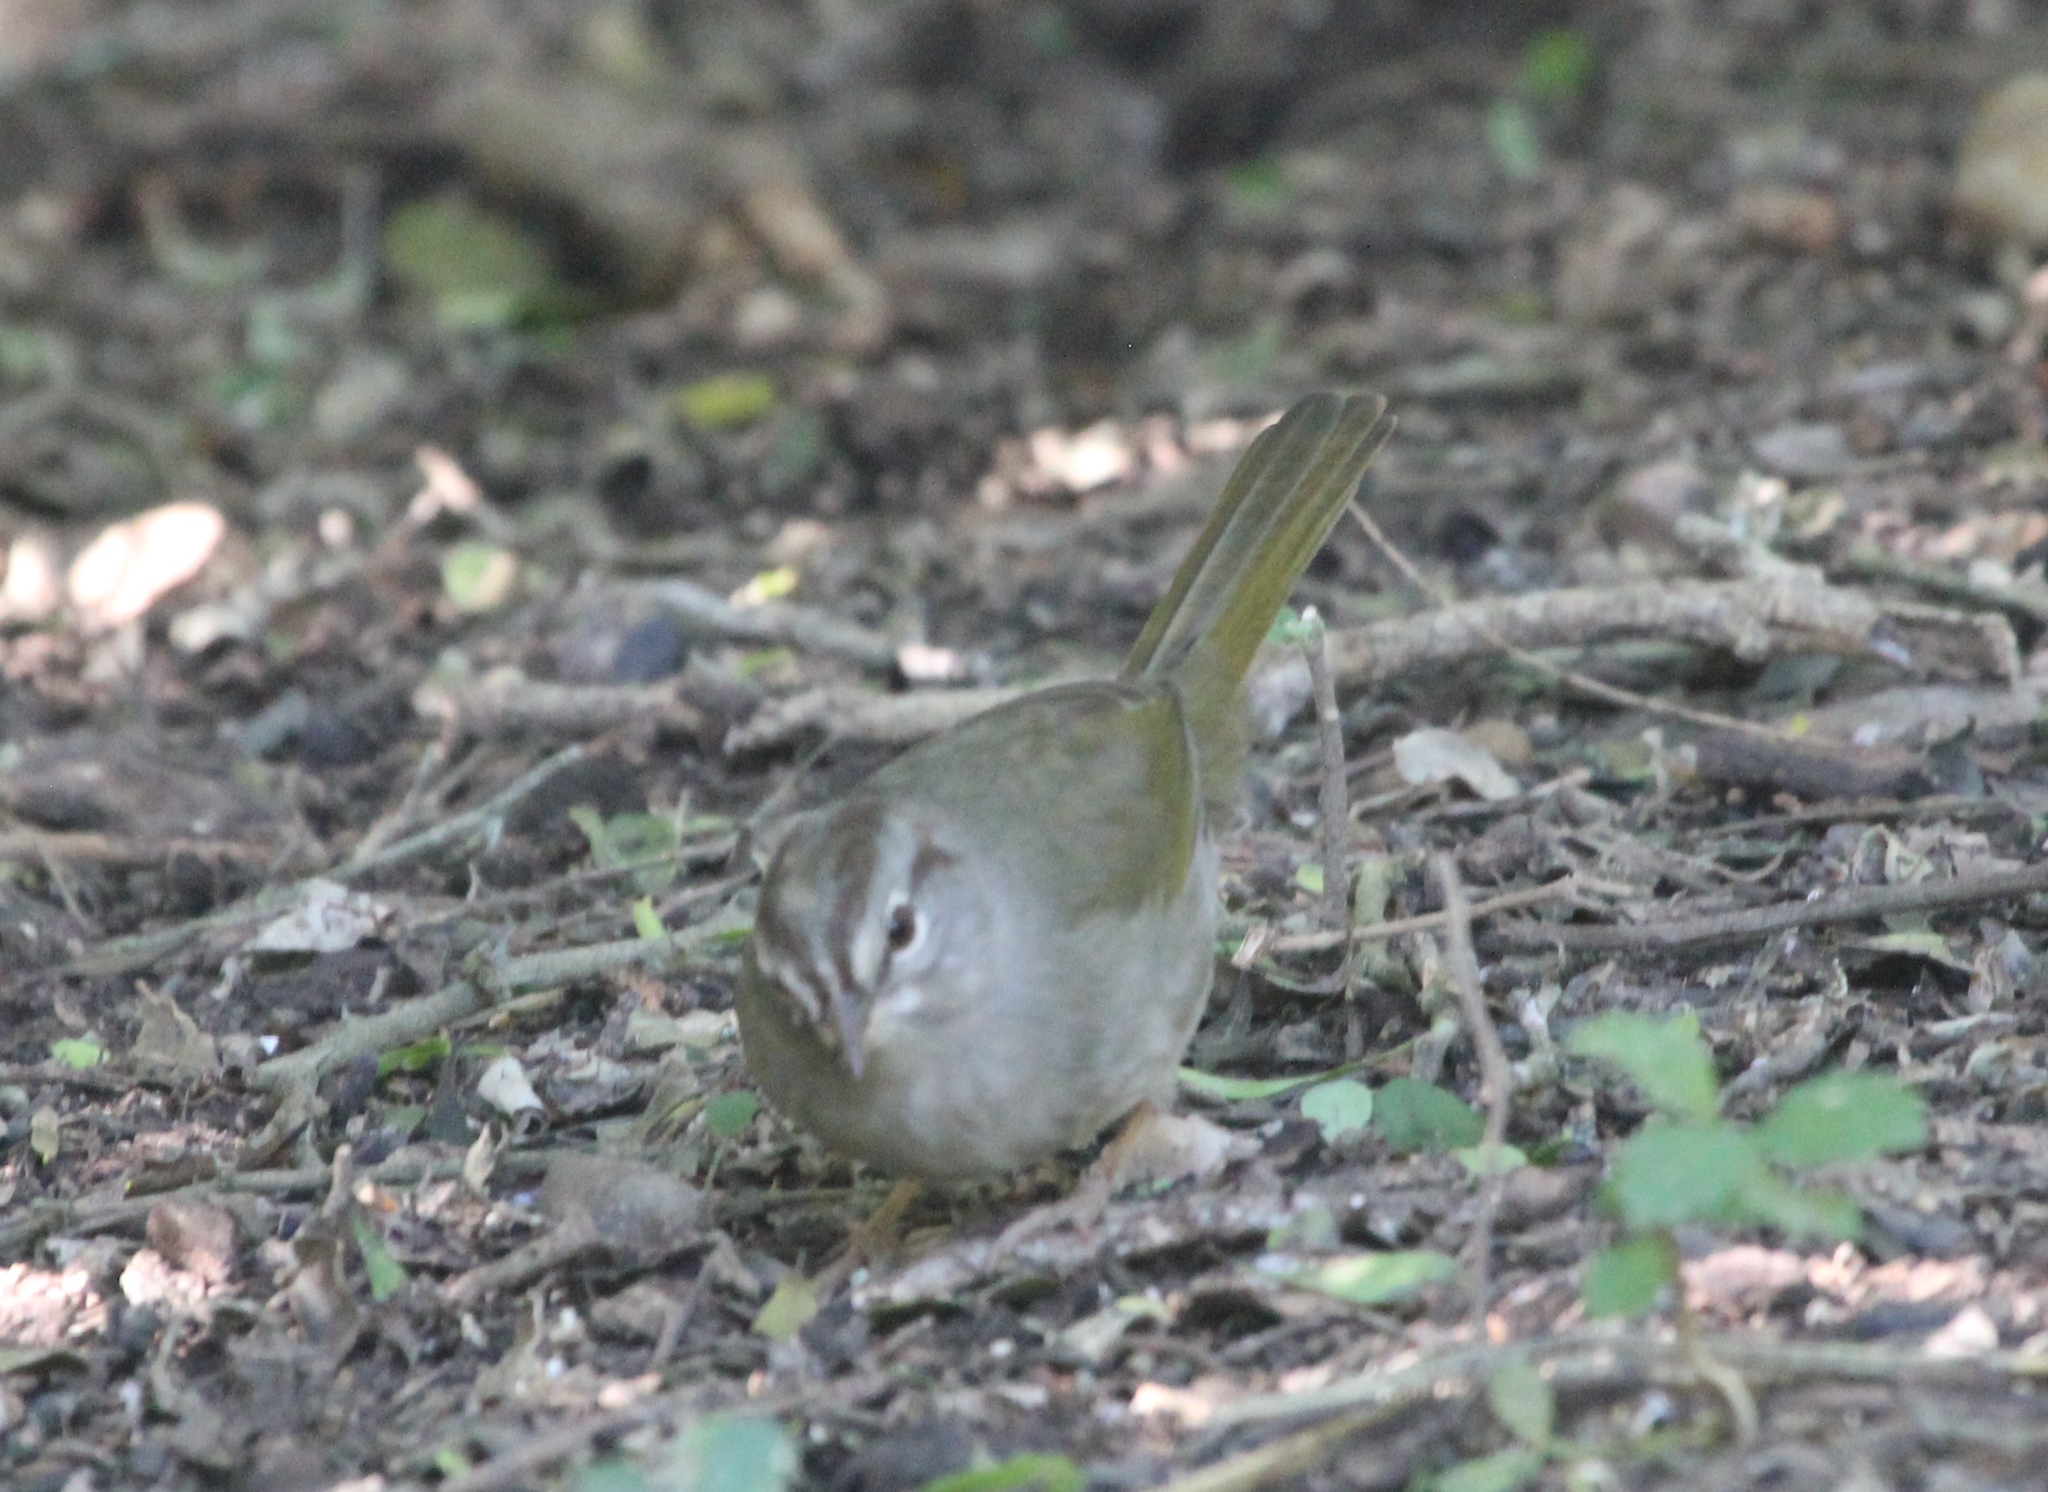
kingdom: Animalia
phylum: Chordata
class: Aves
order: Passeriformes
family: Passerellidae
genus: Arremonops
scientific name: Arremonops rufivirgatus
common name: Olive sparrow
